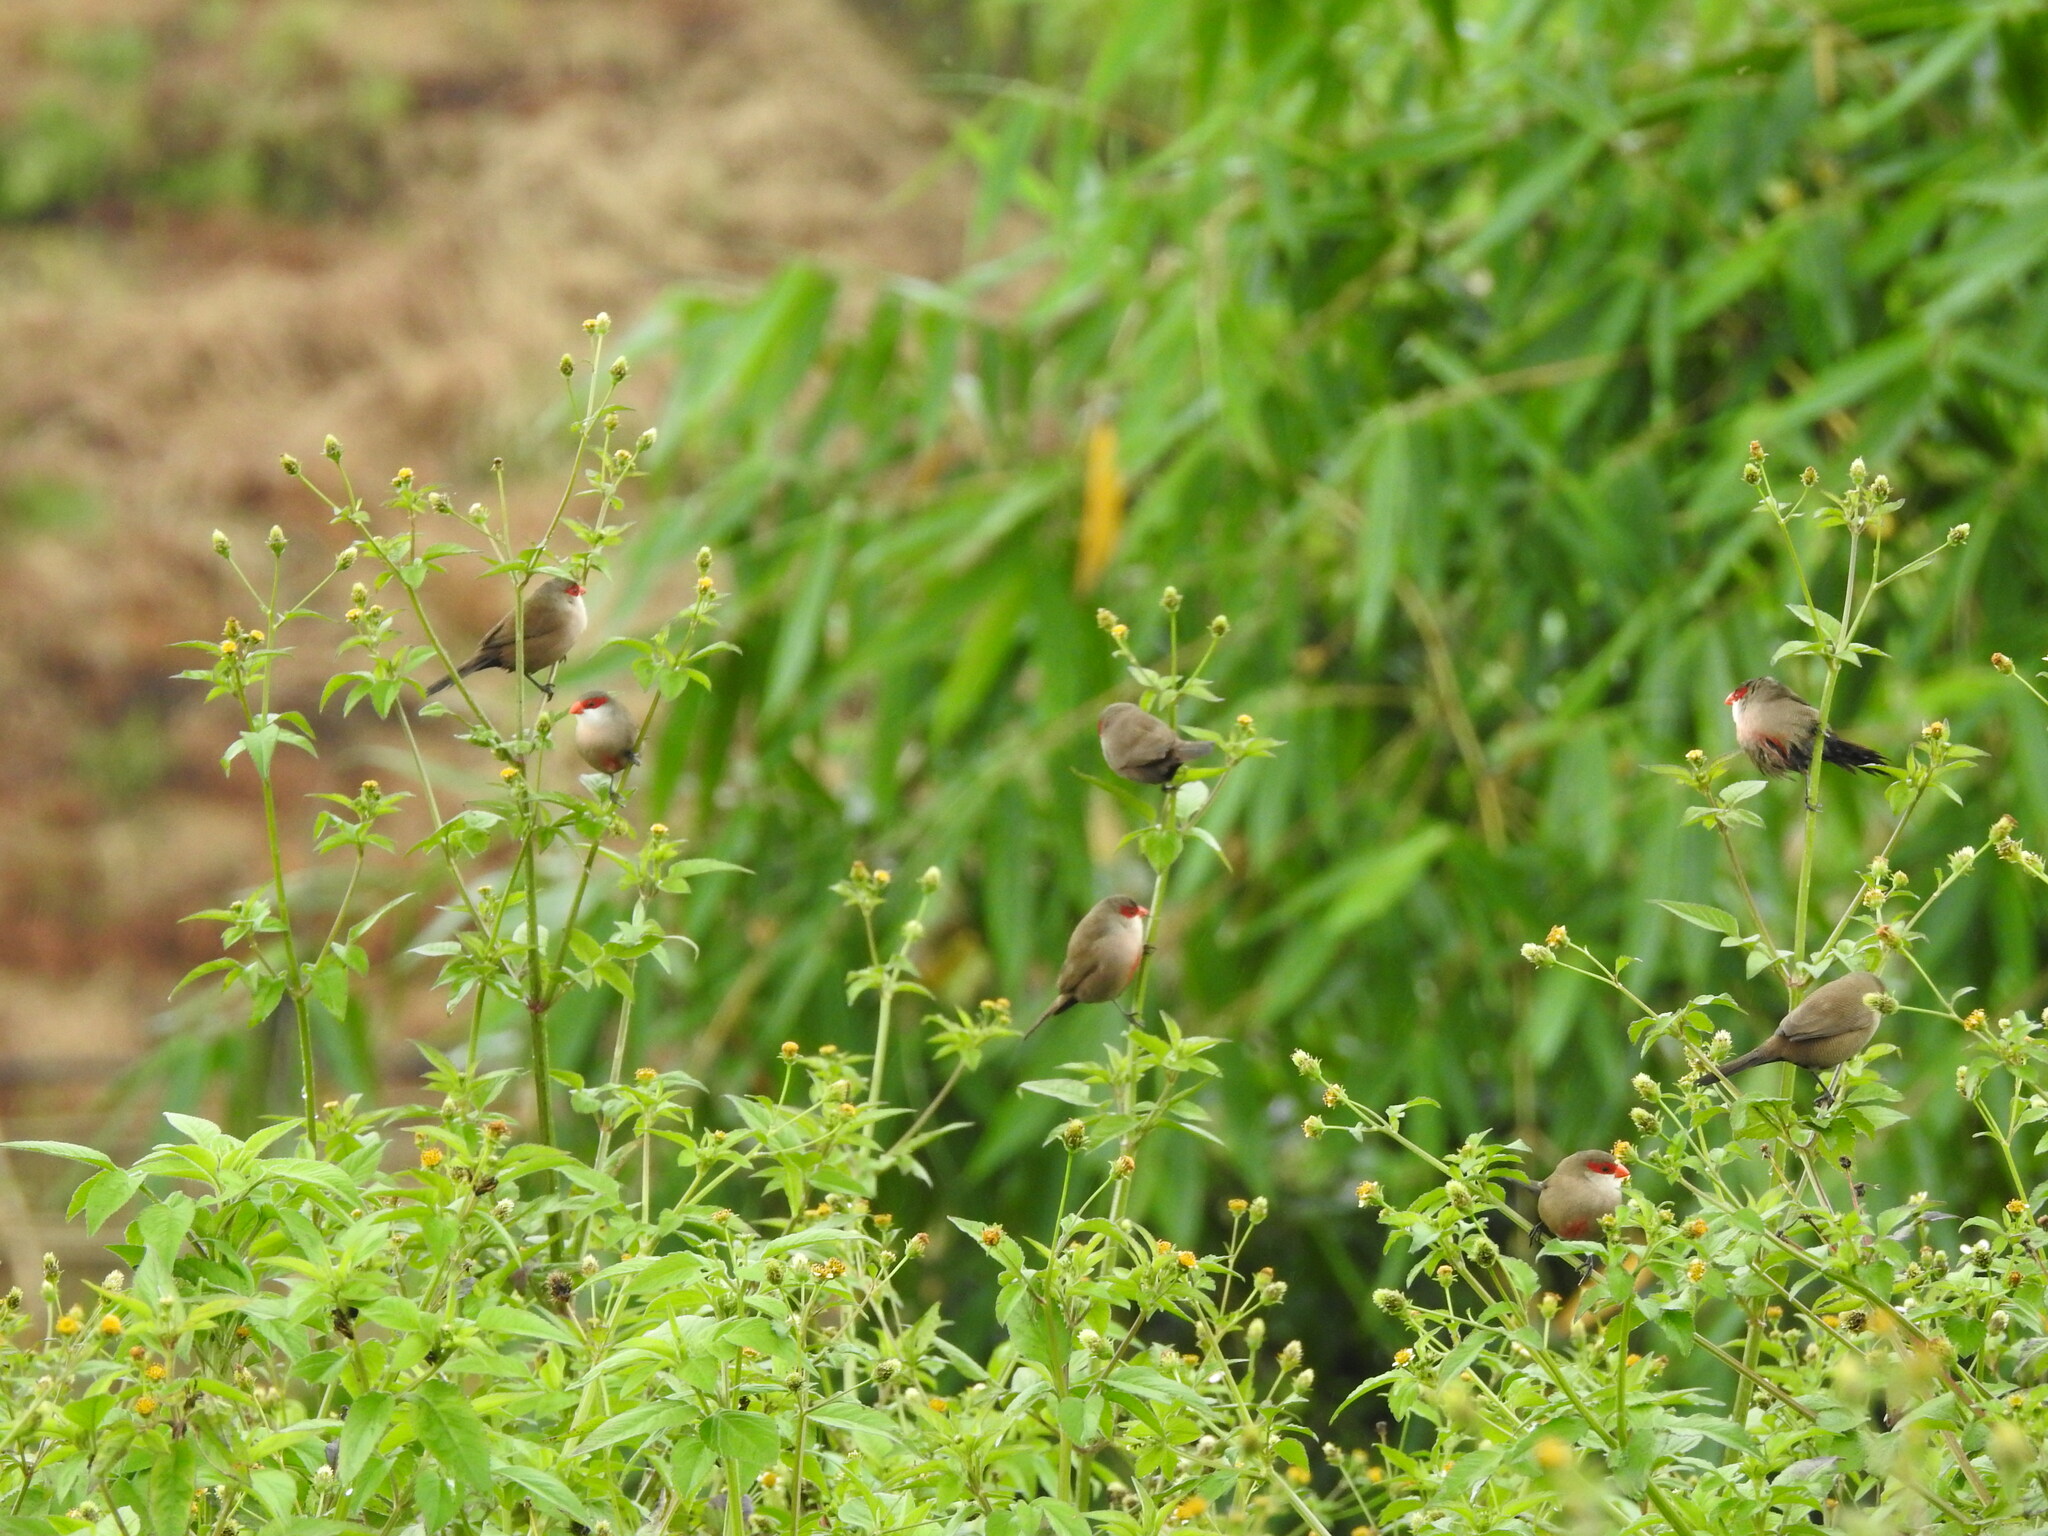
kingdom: Animalia
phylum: Chordata
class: Aves
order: Passeriformes
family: Estrildidae
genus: Estrilda
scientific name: Estrilda astrild
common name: Common waxbill
